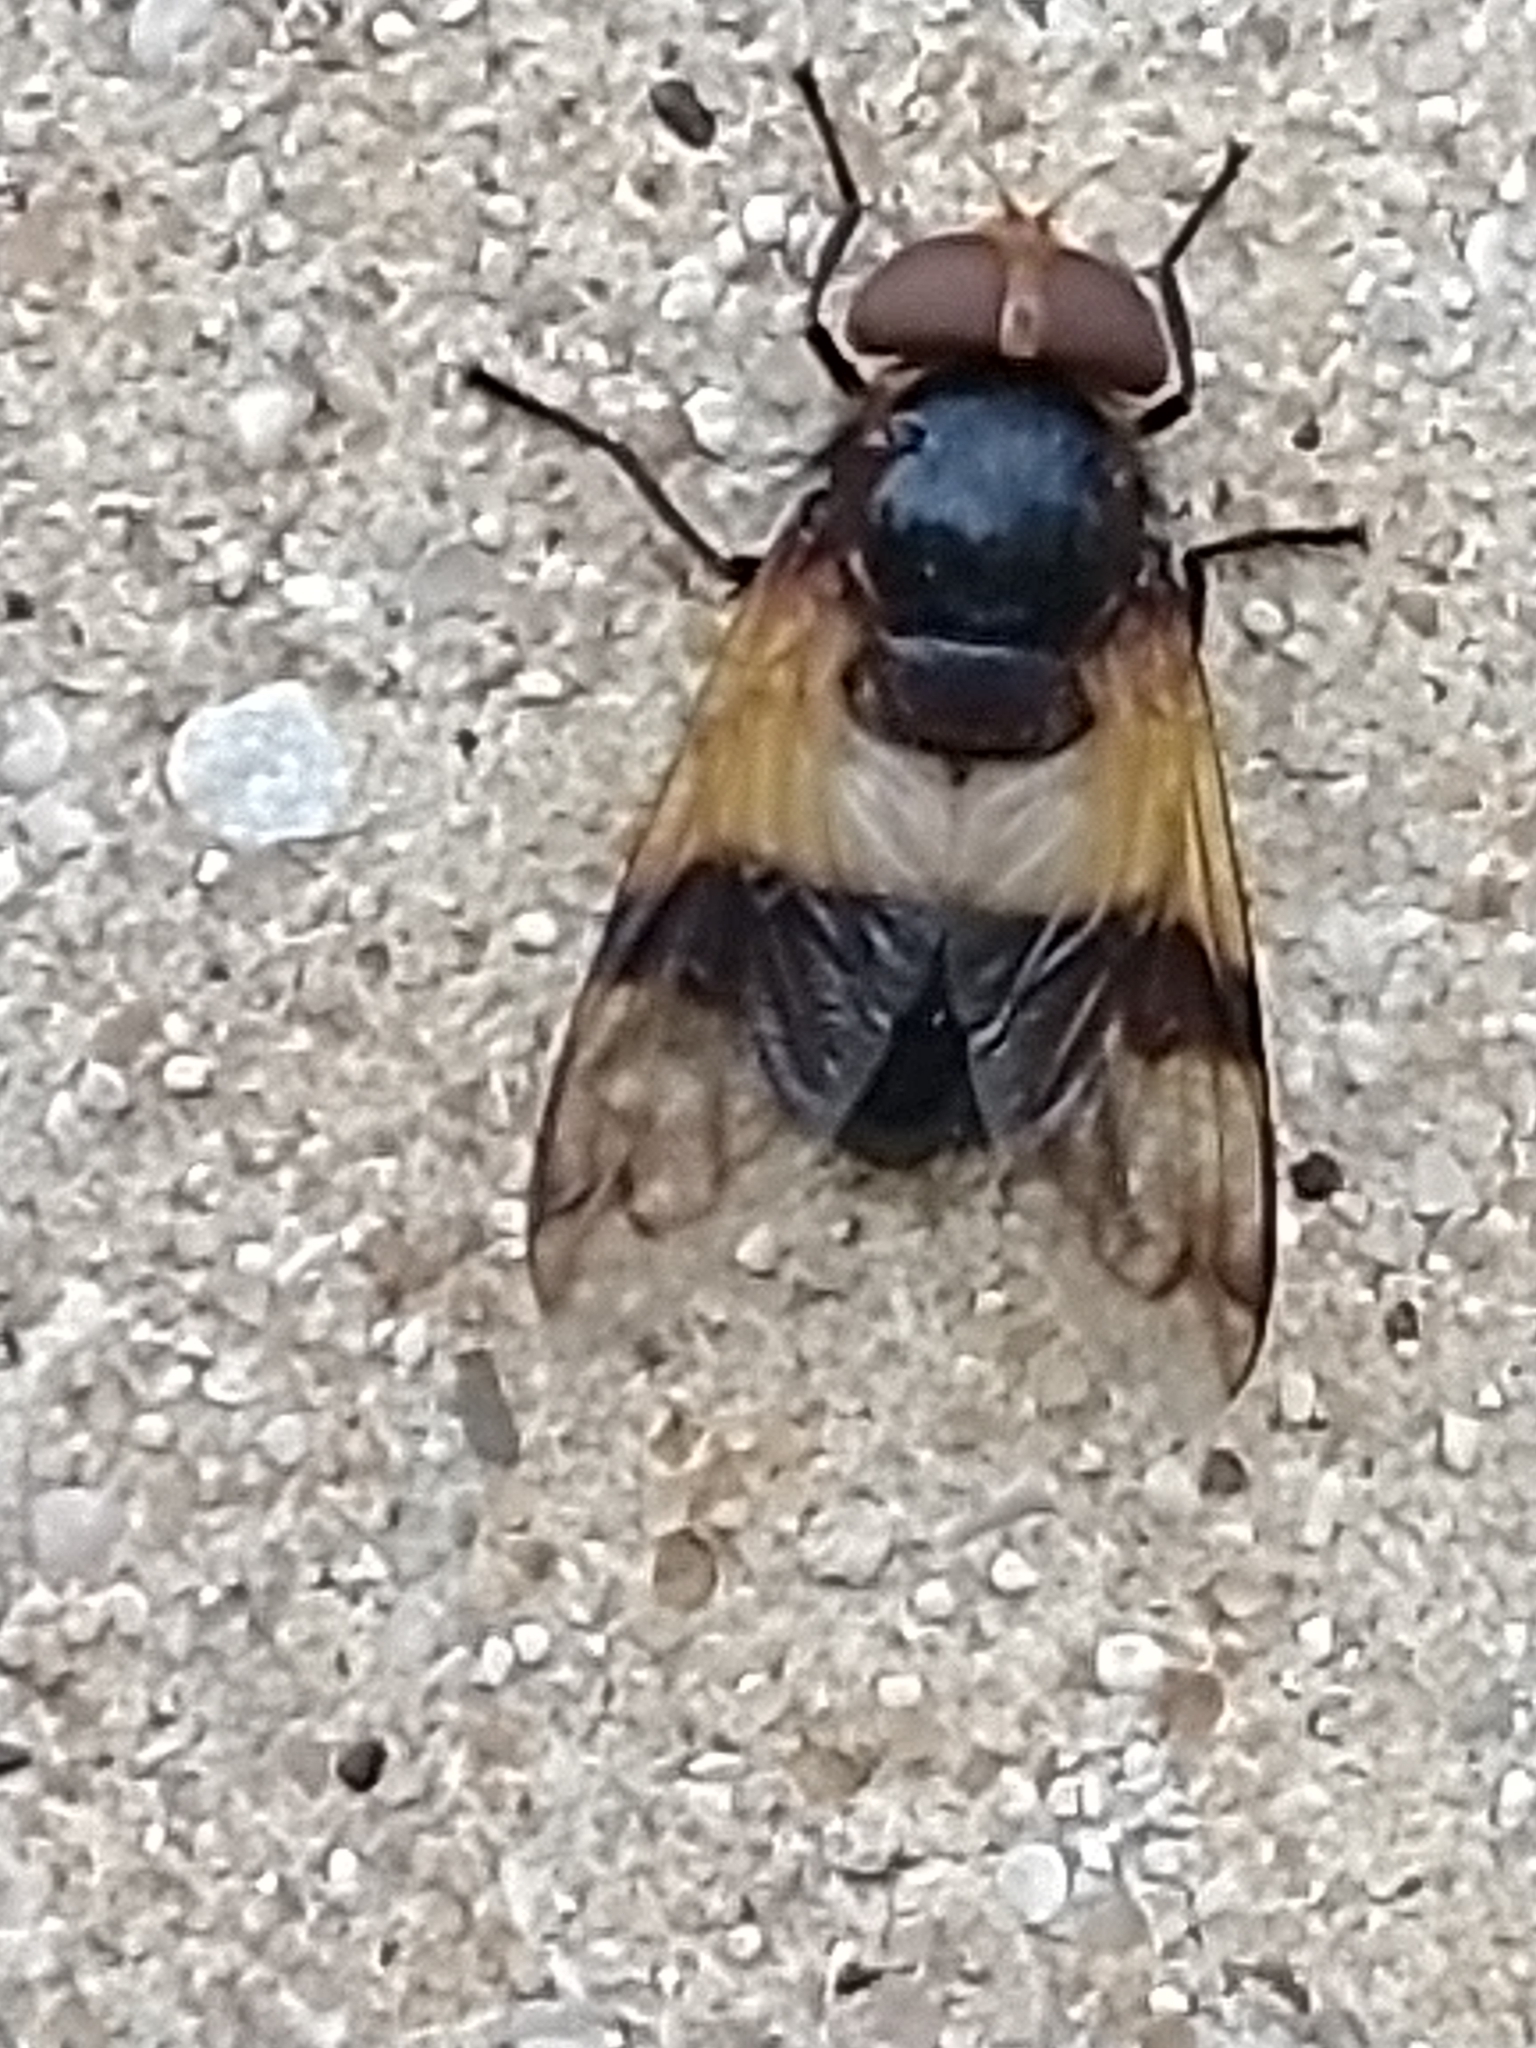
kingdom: Animalia
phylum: Arthropoda
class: Insecta
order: Diptera
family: Syrphidae
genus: Volucella
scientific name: Volucella pellucens
